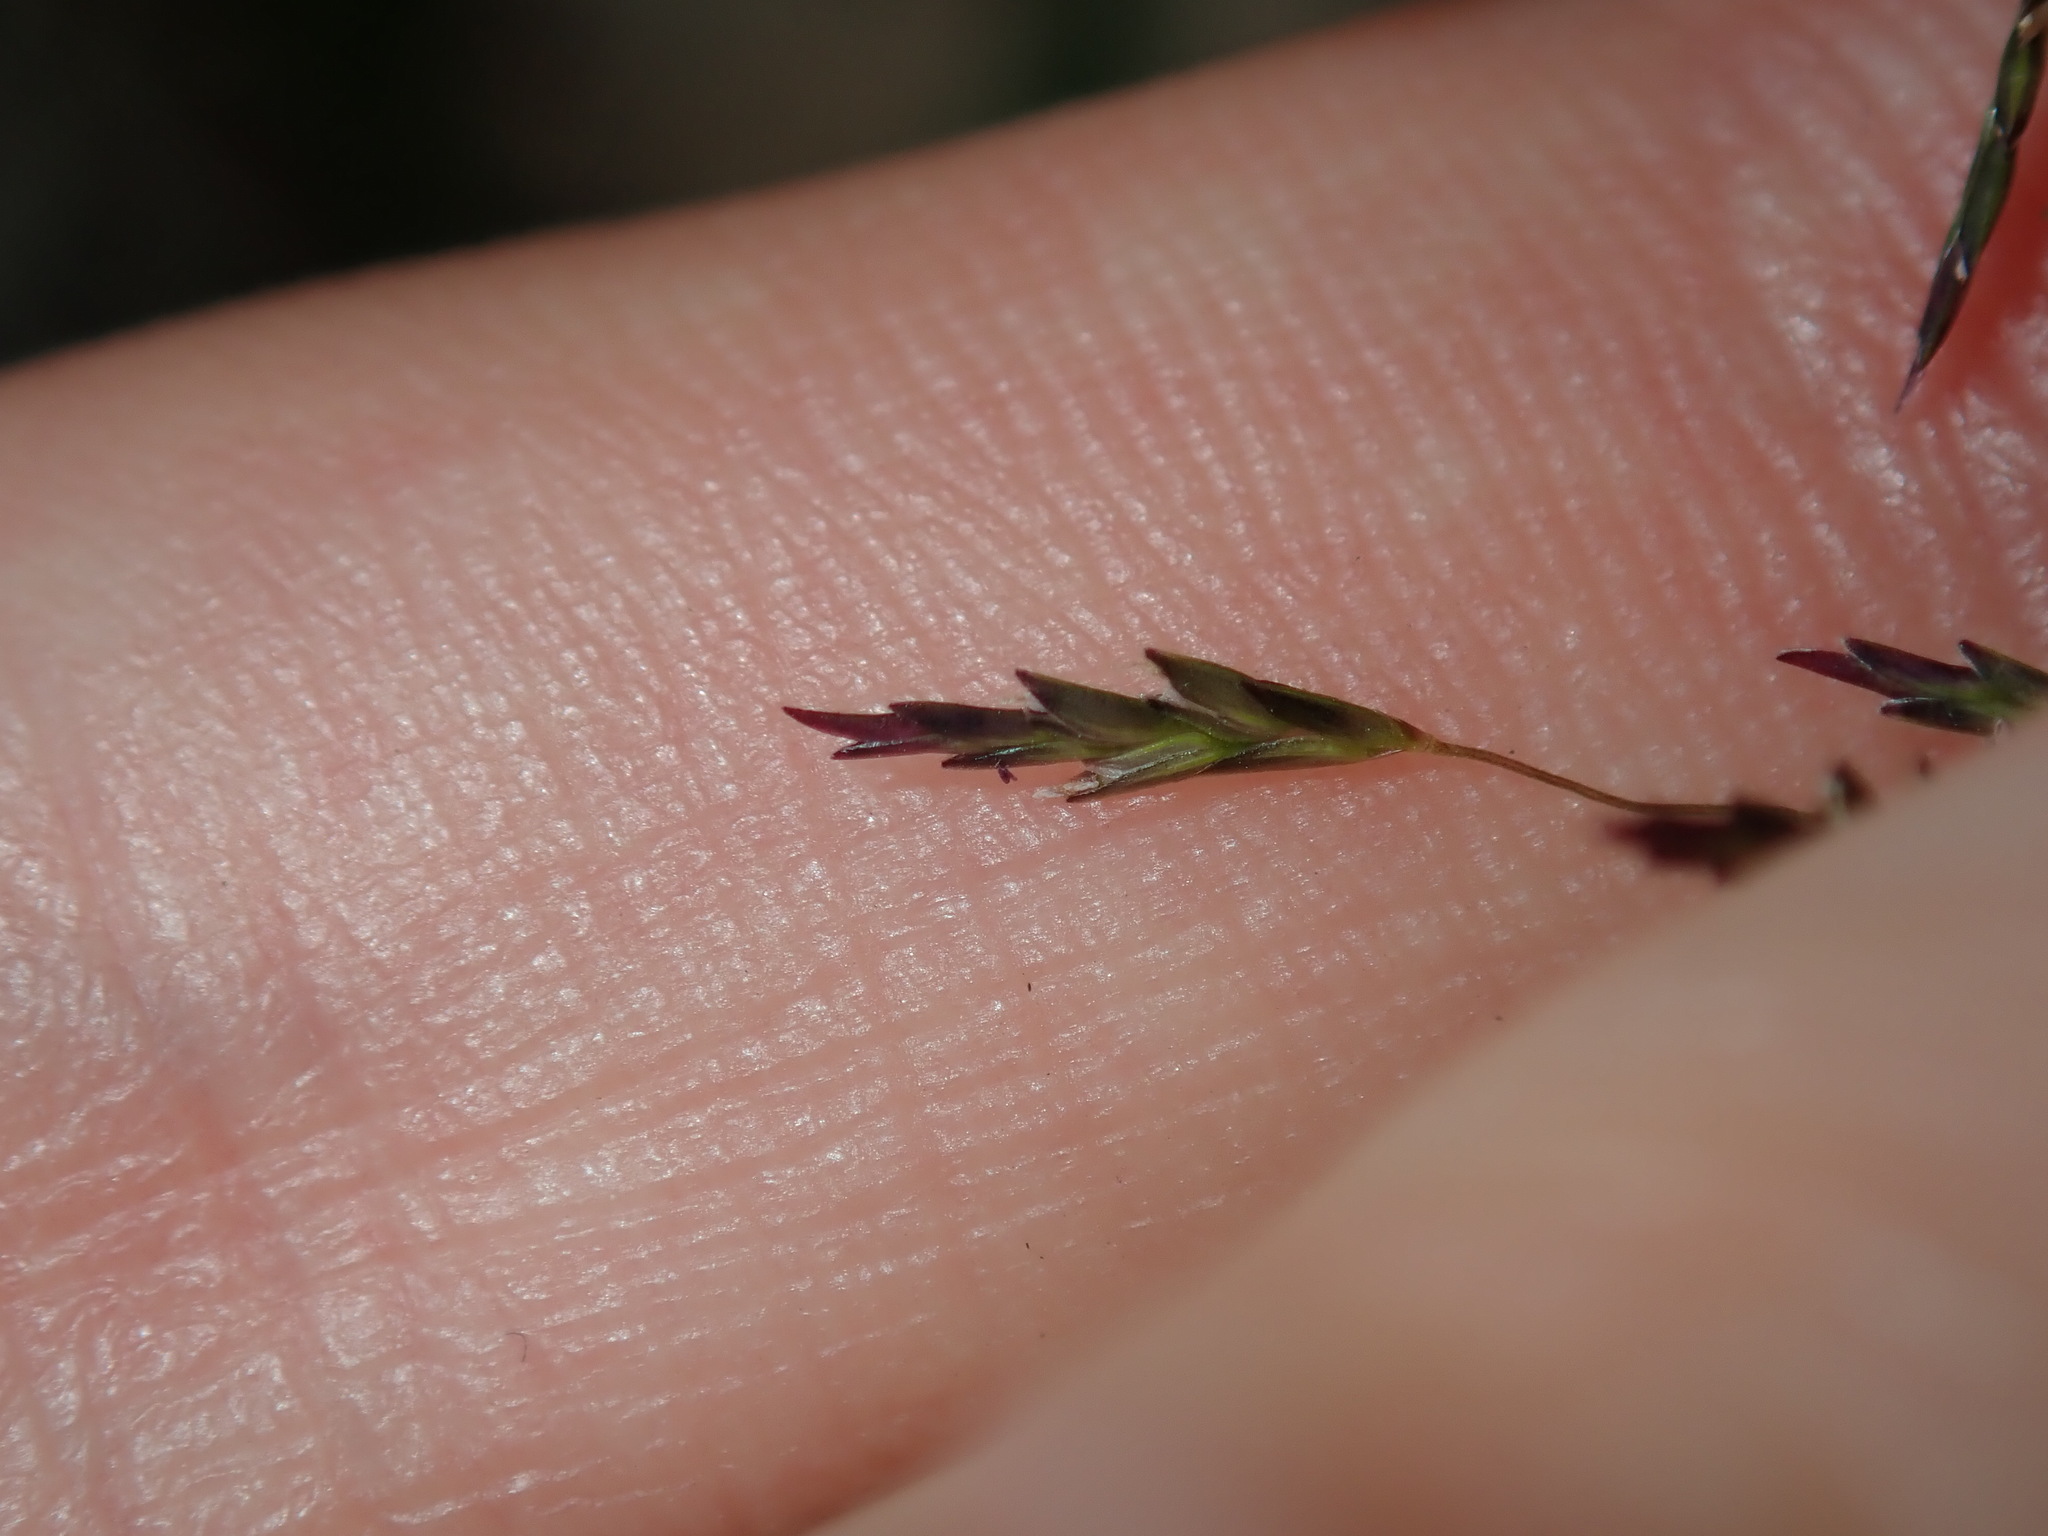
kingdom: Plantae
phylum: Tracheophyta
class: Liliopsida
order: Poales
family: Poaceae
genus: Eragrostis
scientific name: Eragrostis tenuifolia
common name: Elastic grass
